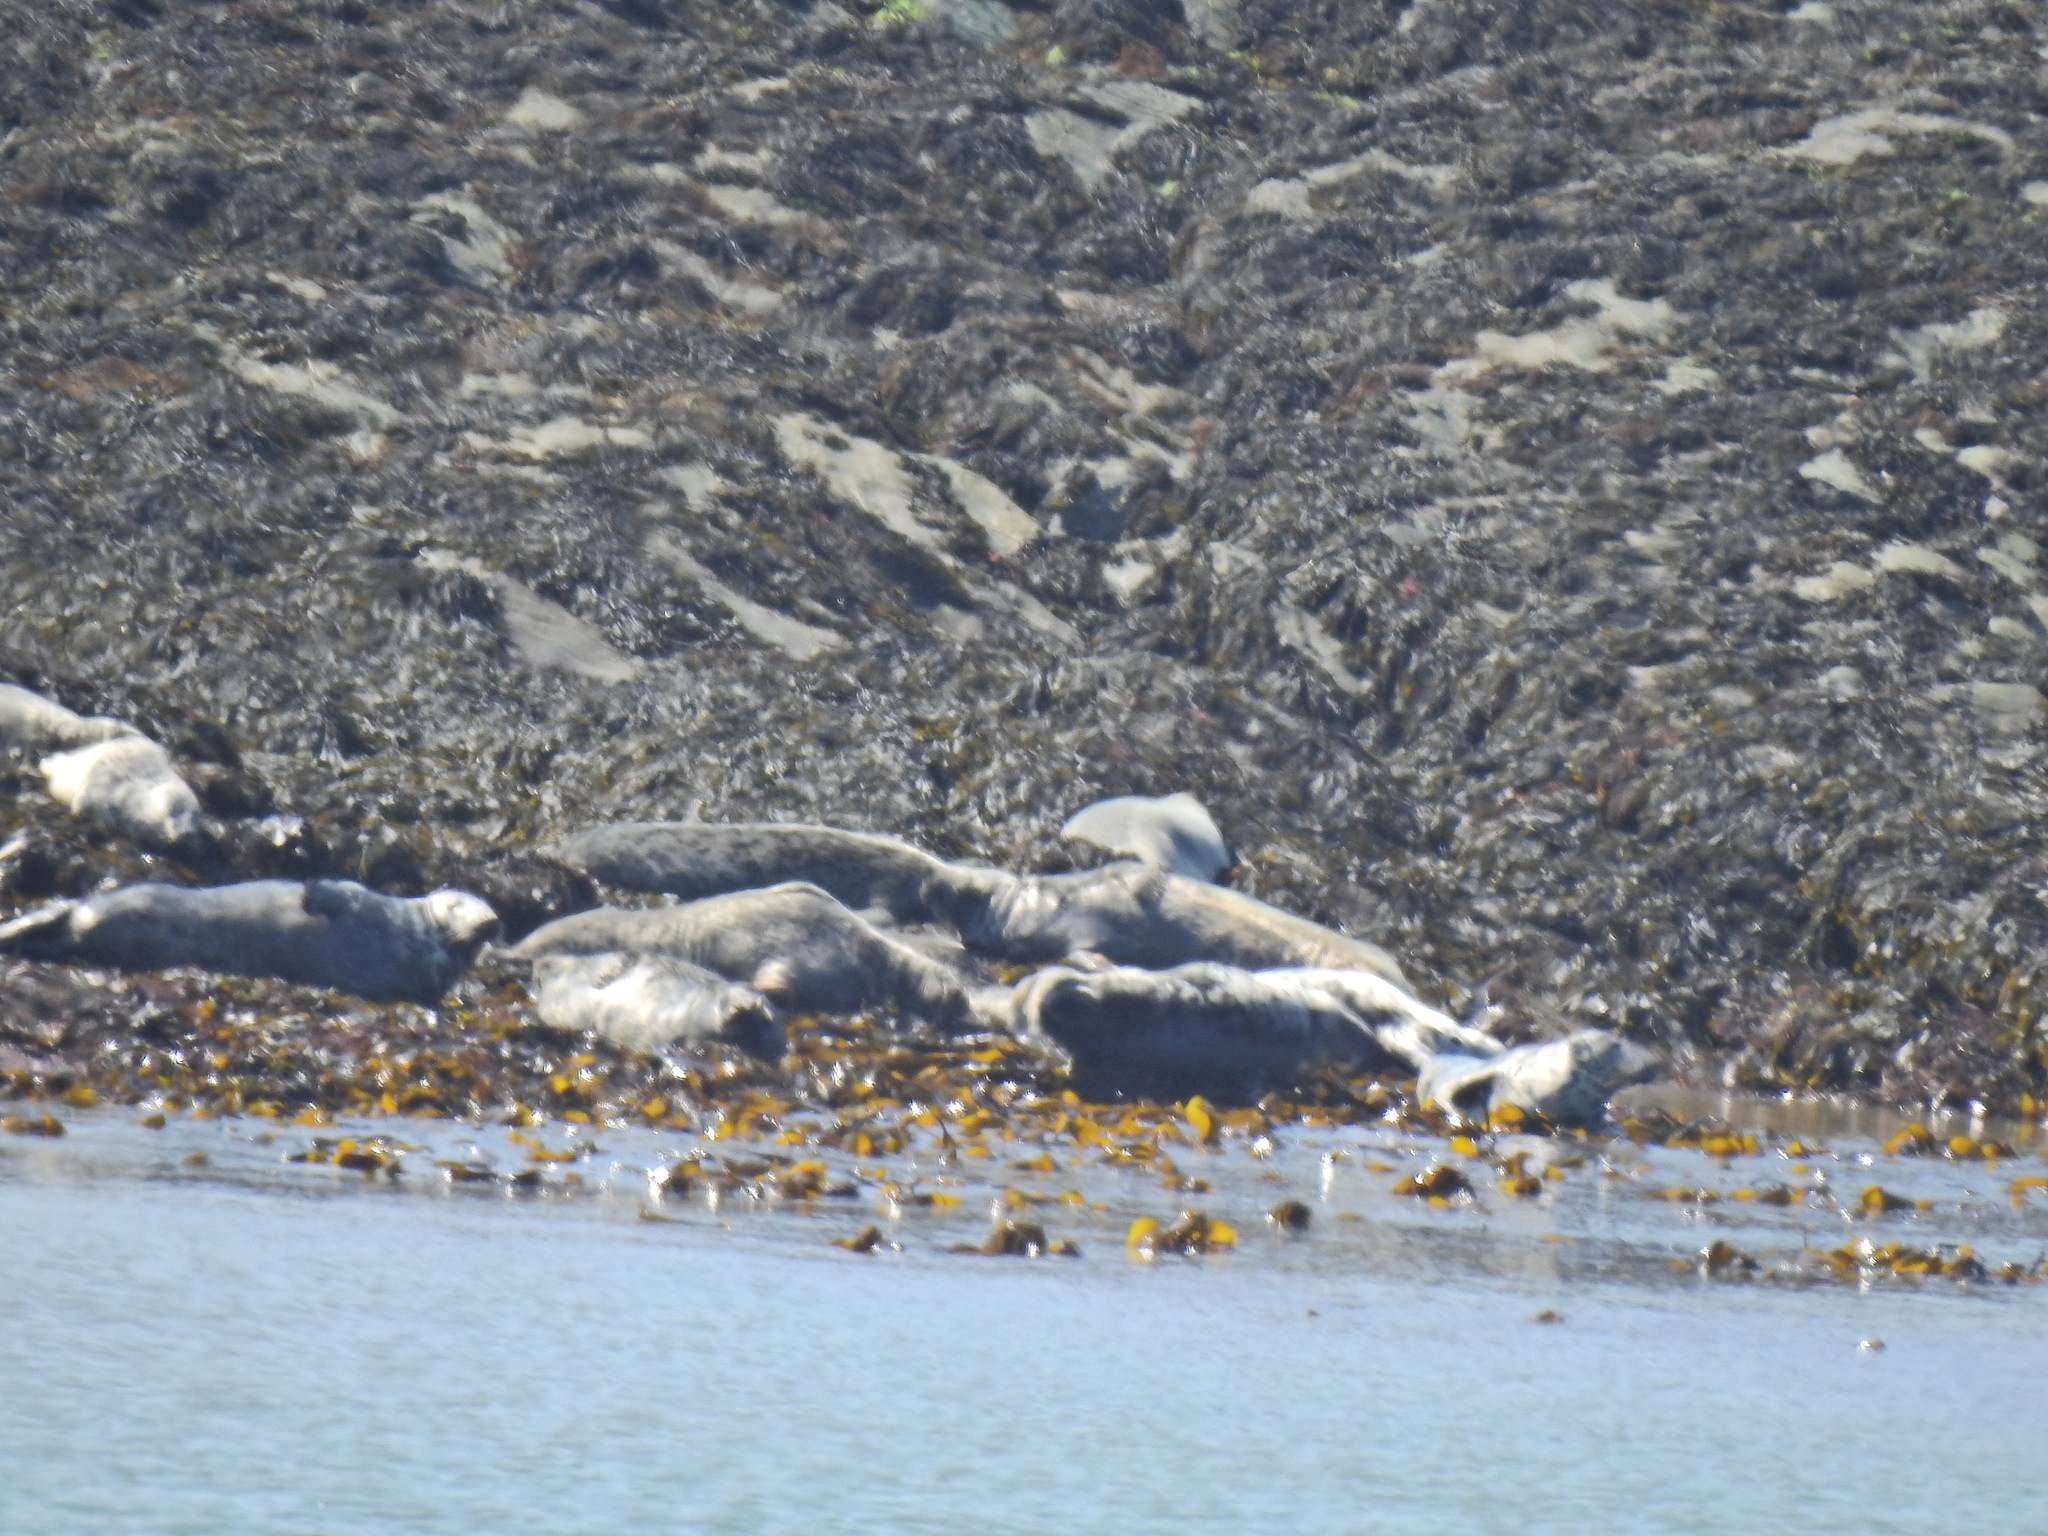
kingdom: Animalia
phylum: Chordata
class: Mammalia
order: Carnivora
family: Phocidae
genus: Halichoerus
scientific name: Halichoerus grypus
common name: Grey seal
